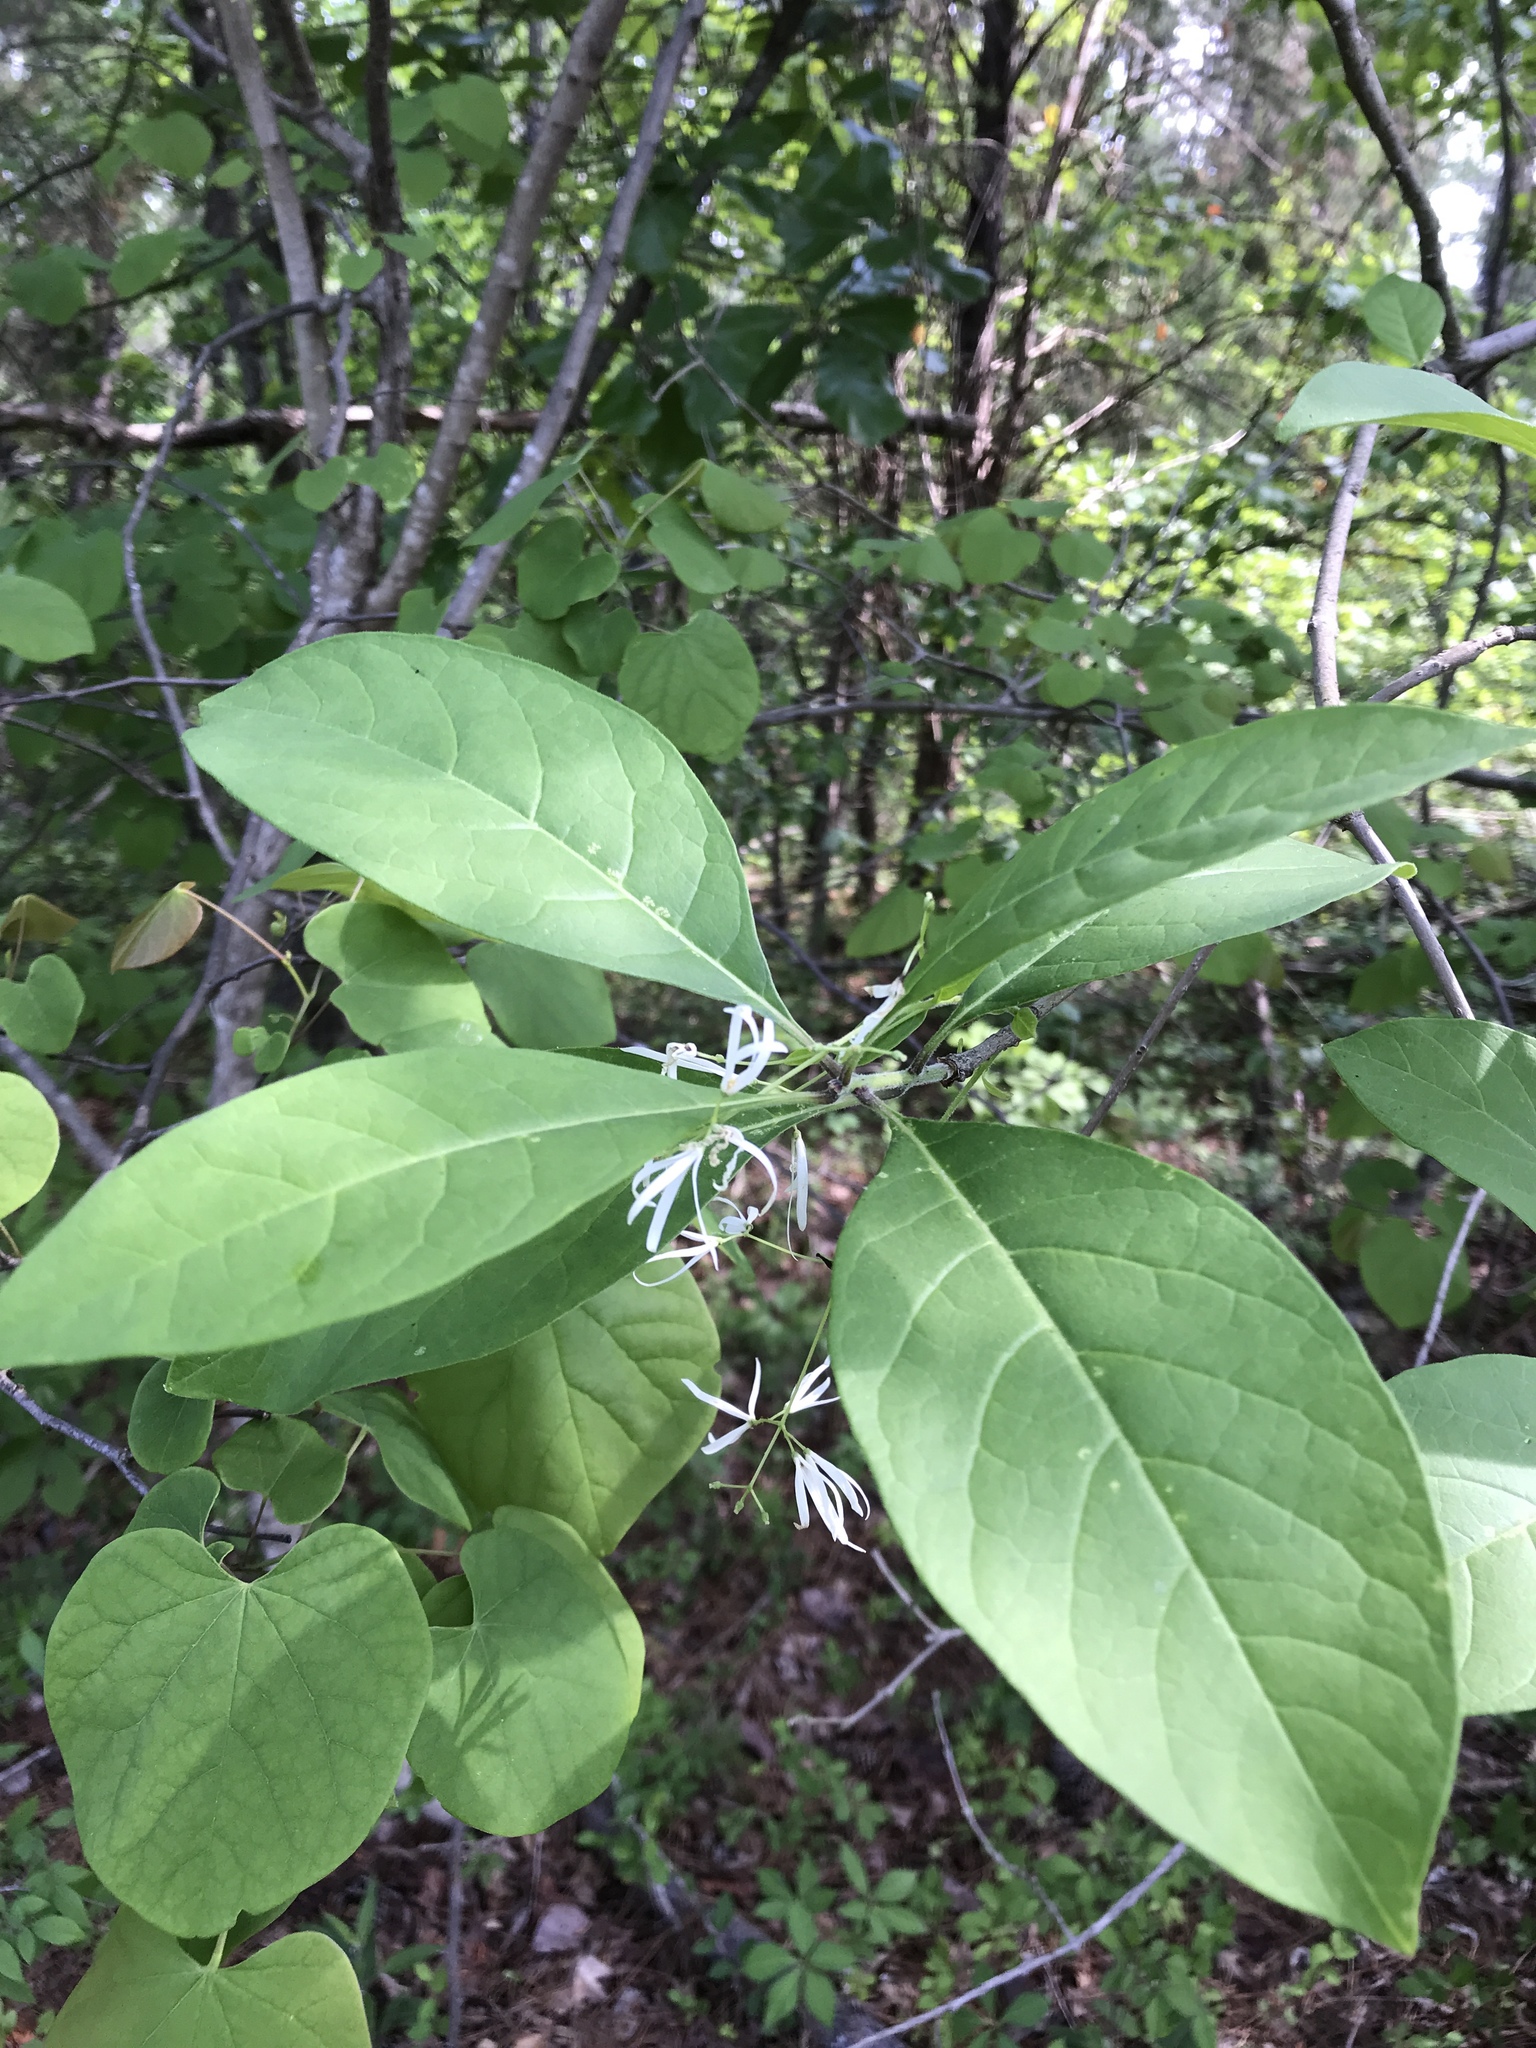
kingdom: Plantae
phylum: Tracheophyta
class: Magnoliopsida
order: Lamiales
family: Oleaceae
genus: Chionanthus
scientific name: Chionanthus virginicus
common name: American fringetree
